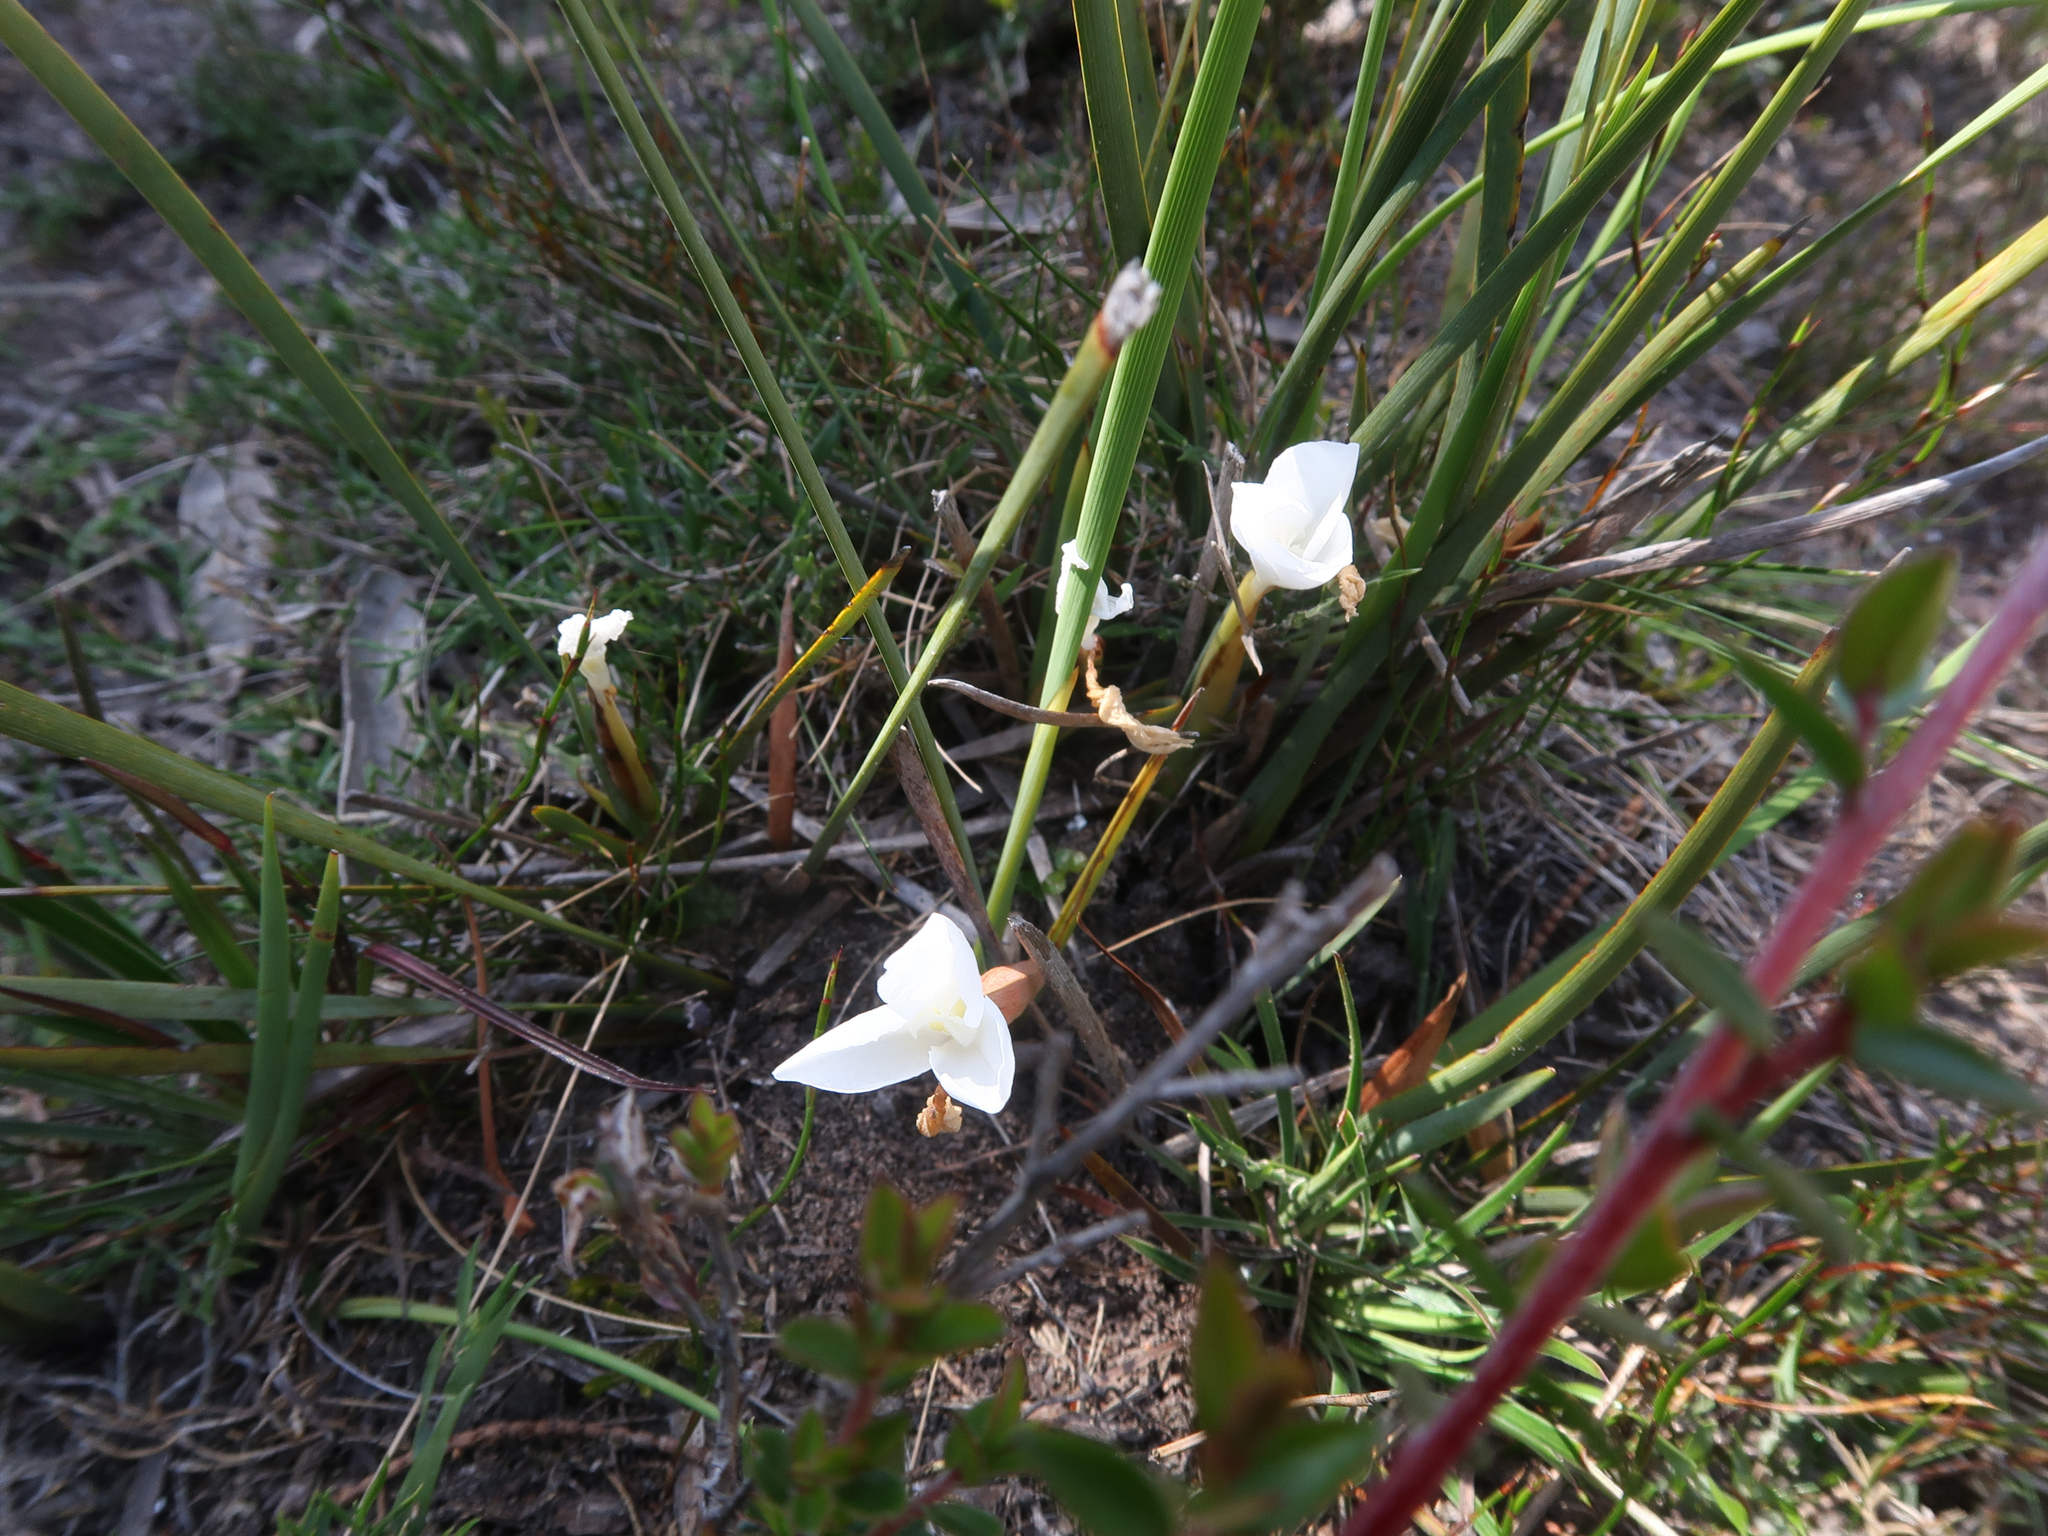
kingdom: Plantae
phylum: Tracheophyta
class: Liliopsida
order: Asparagales
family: Iridaceae
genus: Patersonia
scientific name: Patersonia fragilis
